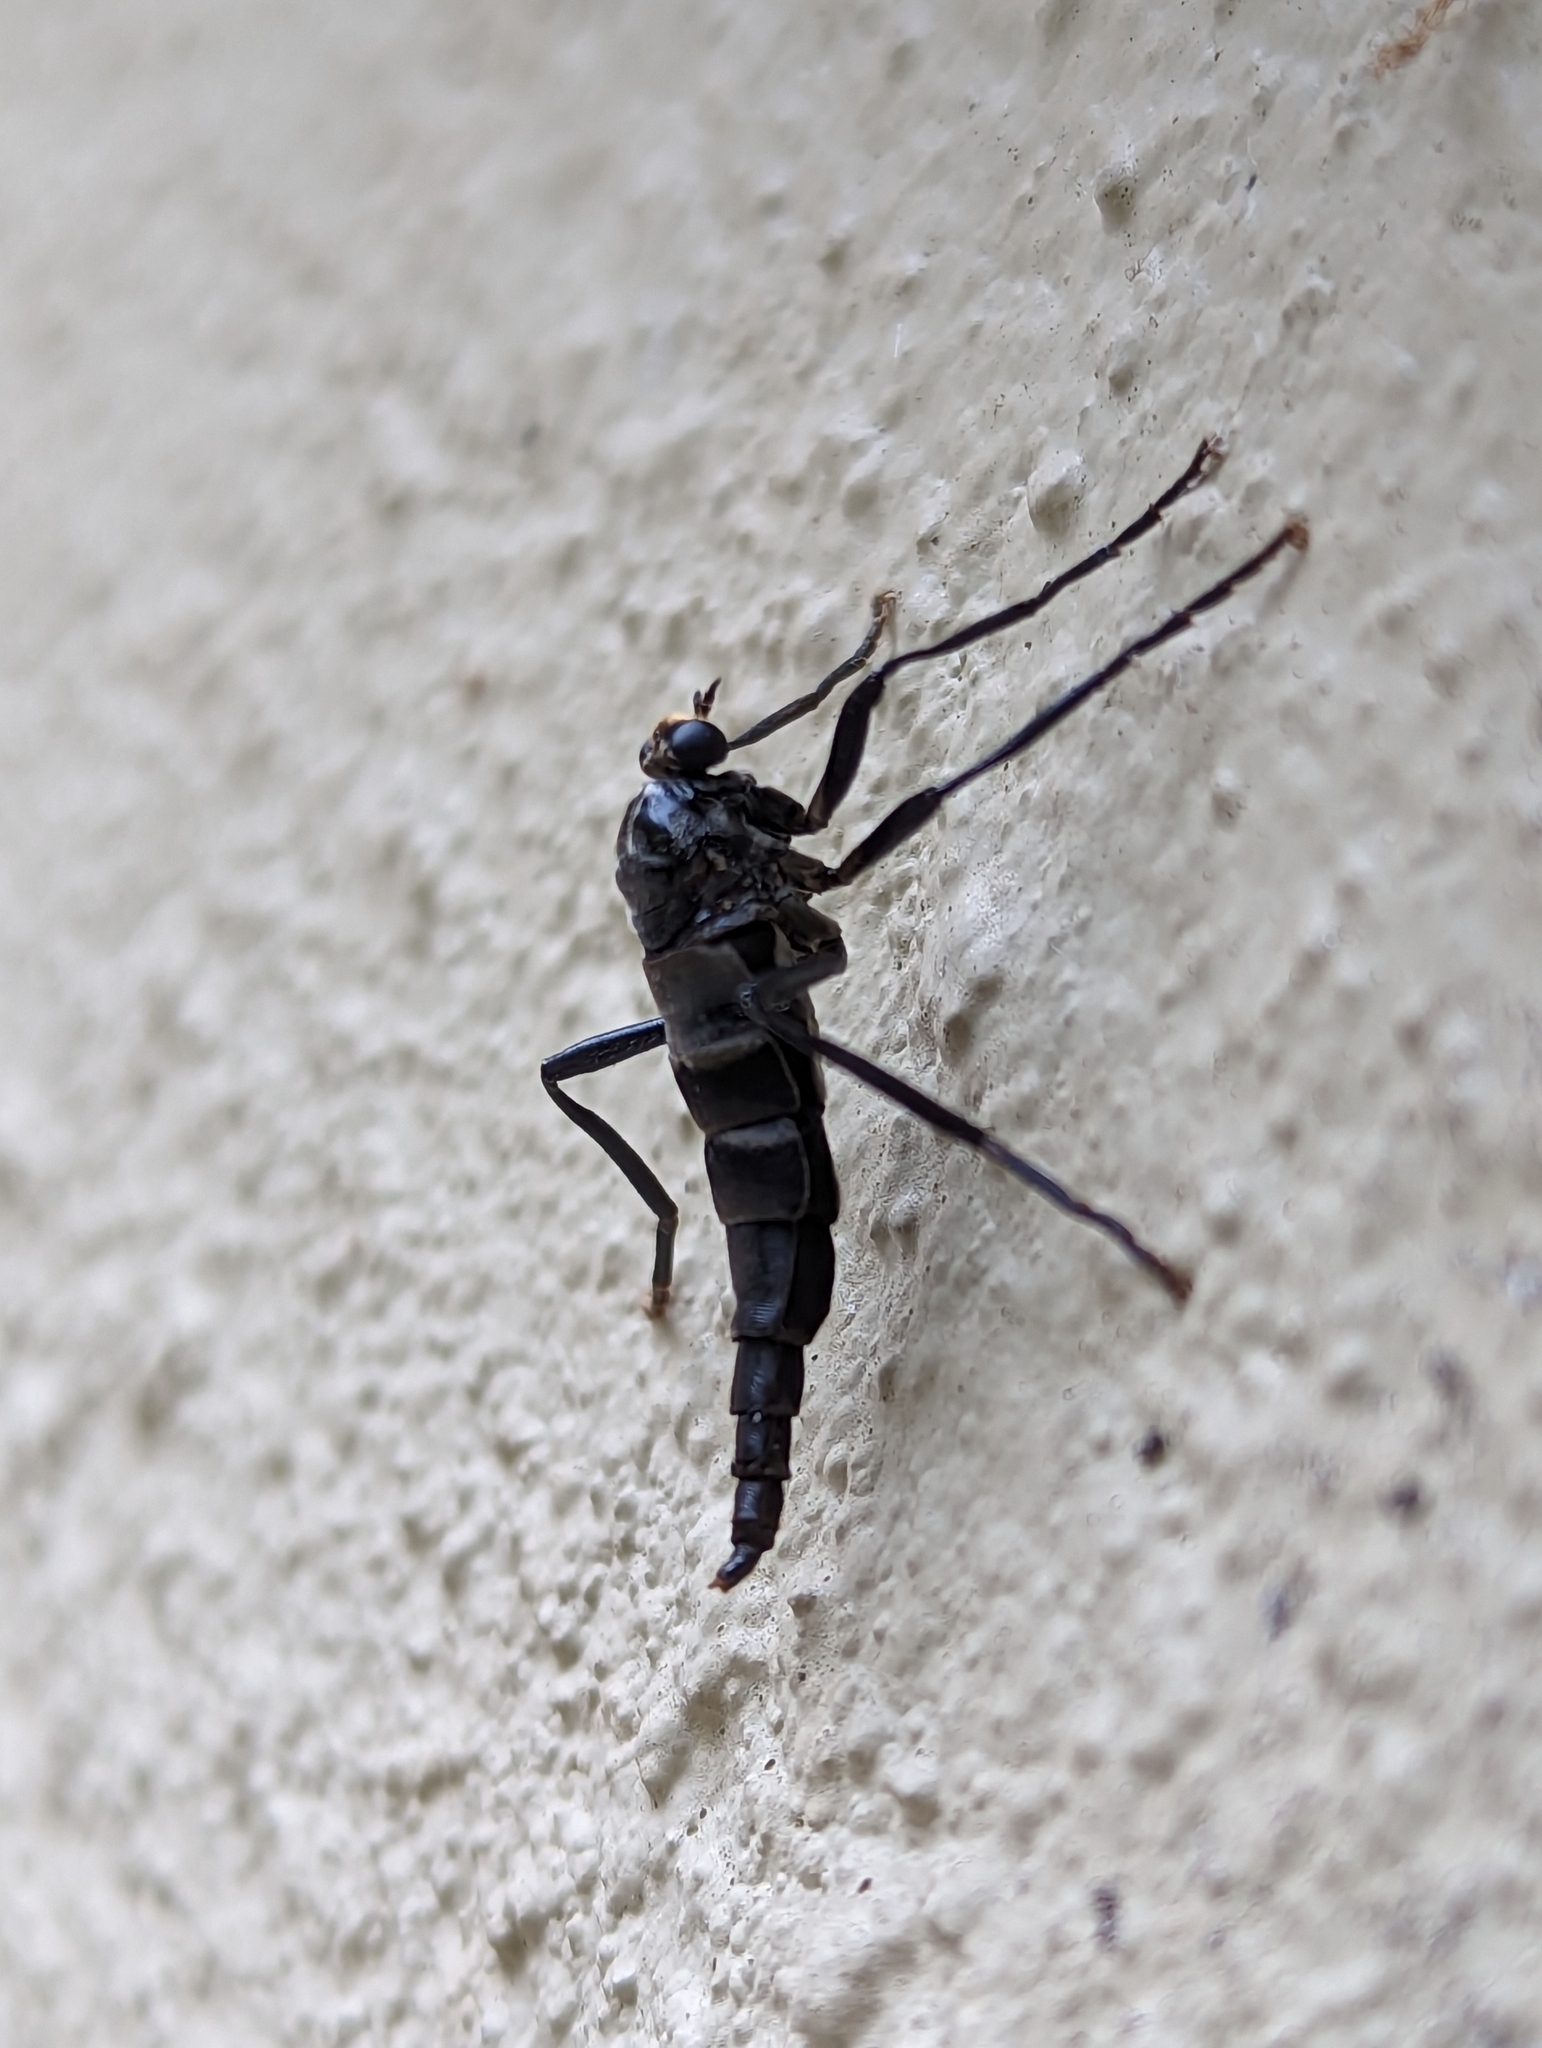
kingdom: Animalia
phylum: Arthropoda
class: Insecta
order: Diptera
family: Stratiomyidae
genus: Boreoides
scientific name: Boreoides subulatus
